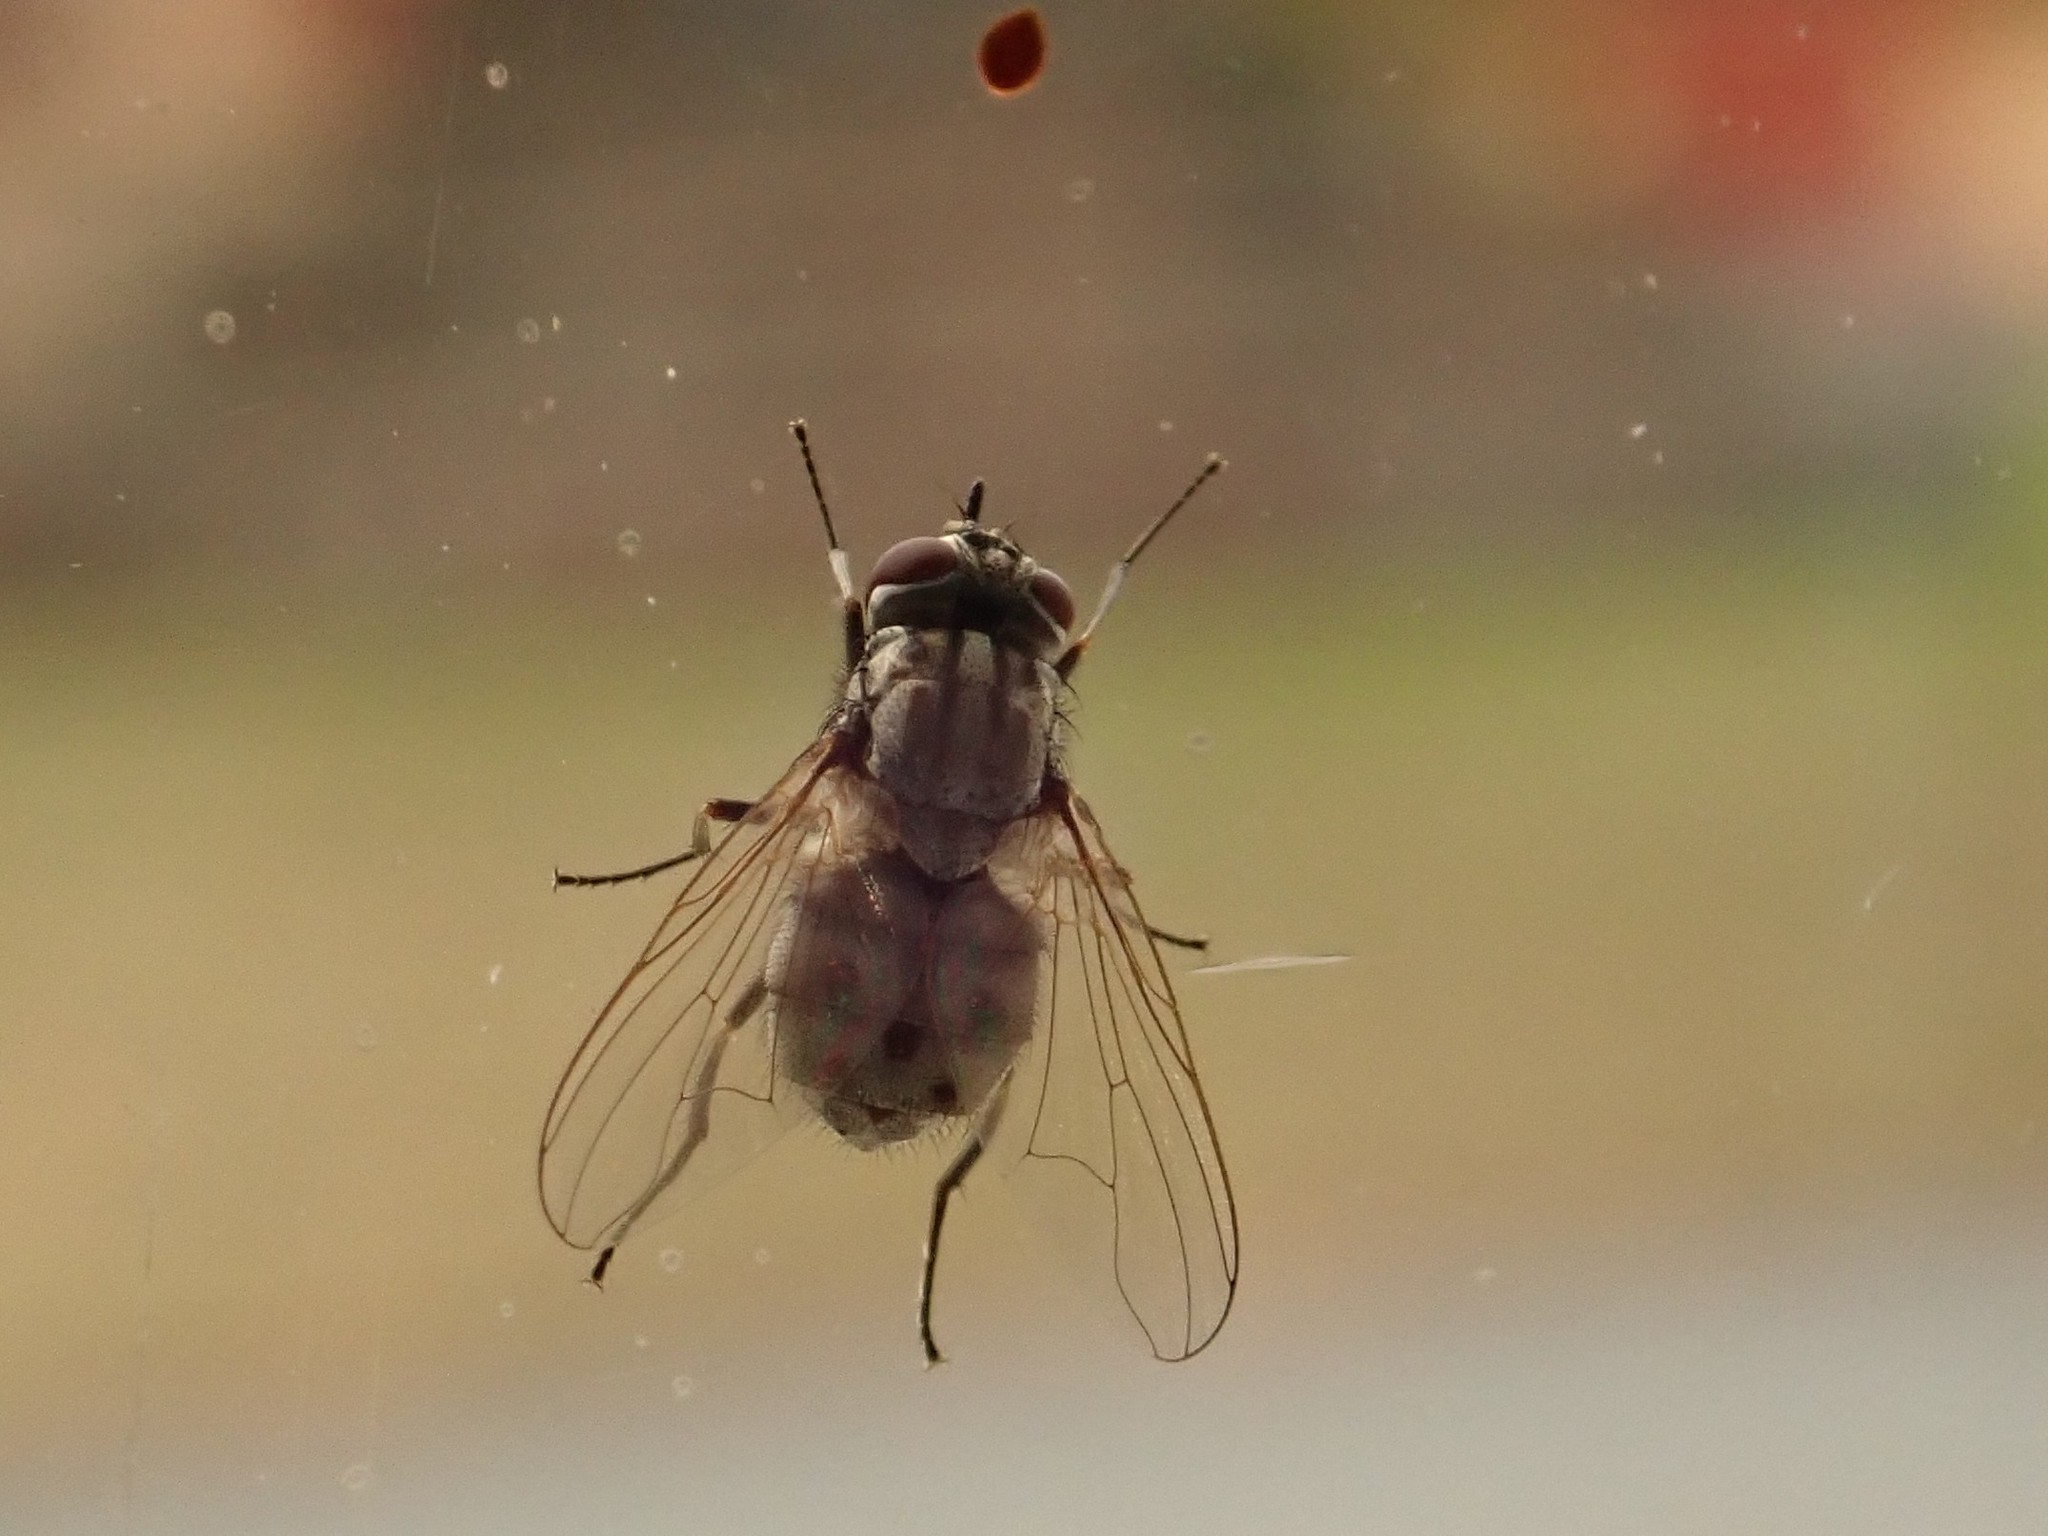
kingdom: Animalia
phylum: Arthropoda
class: Insecta
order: Diptera
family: Muscidae
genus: Stomoxys
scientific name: Stomoxys calcitrans
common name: Stable fly
